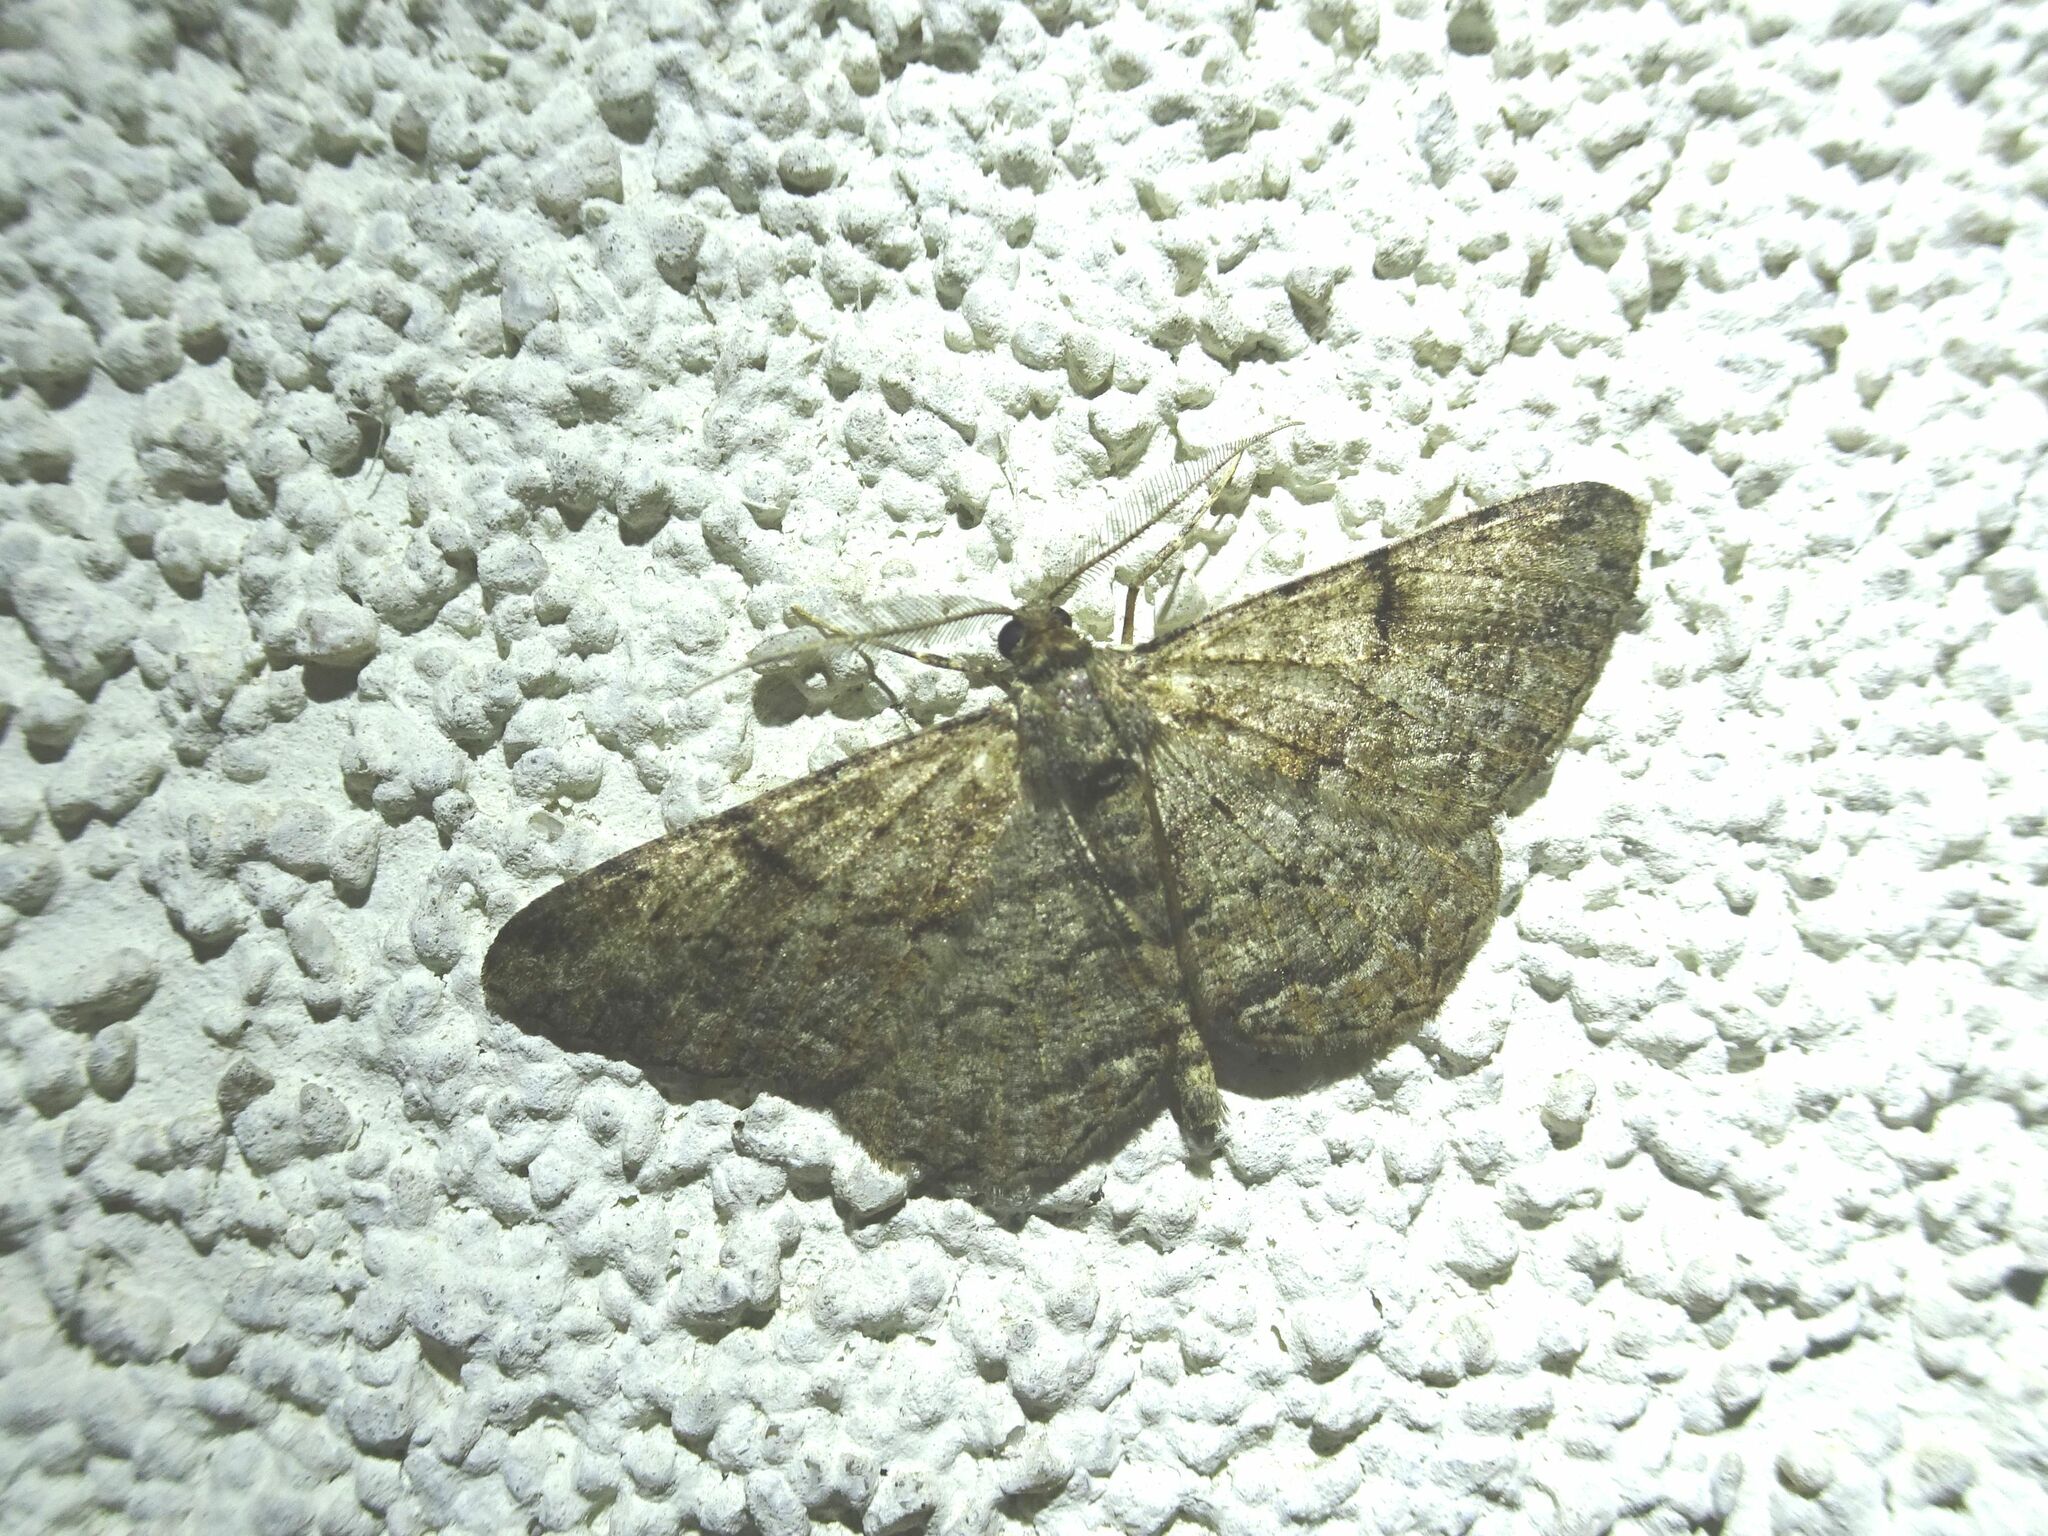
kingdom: Animalia
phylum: Arthropoda
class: Insecta
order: Lepidoptera
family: Geometridae
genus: Peribatodes
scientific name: Peribatodes rhomboidaria
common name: Willow beauty
